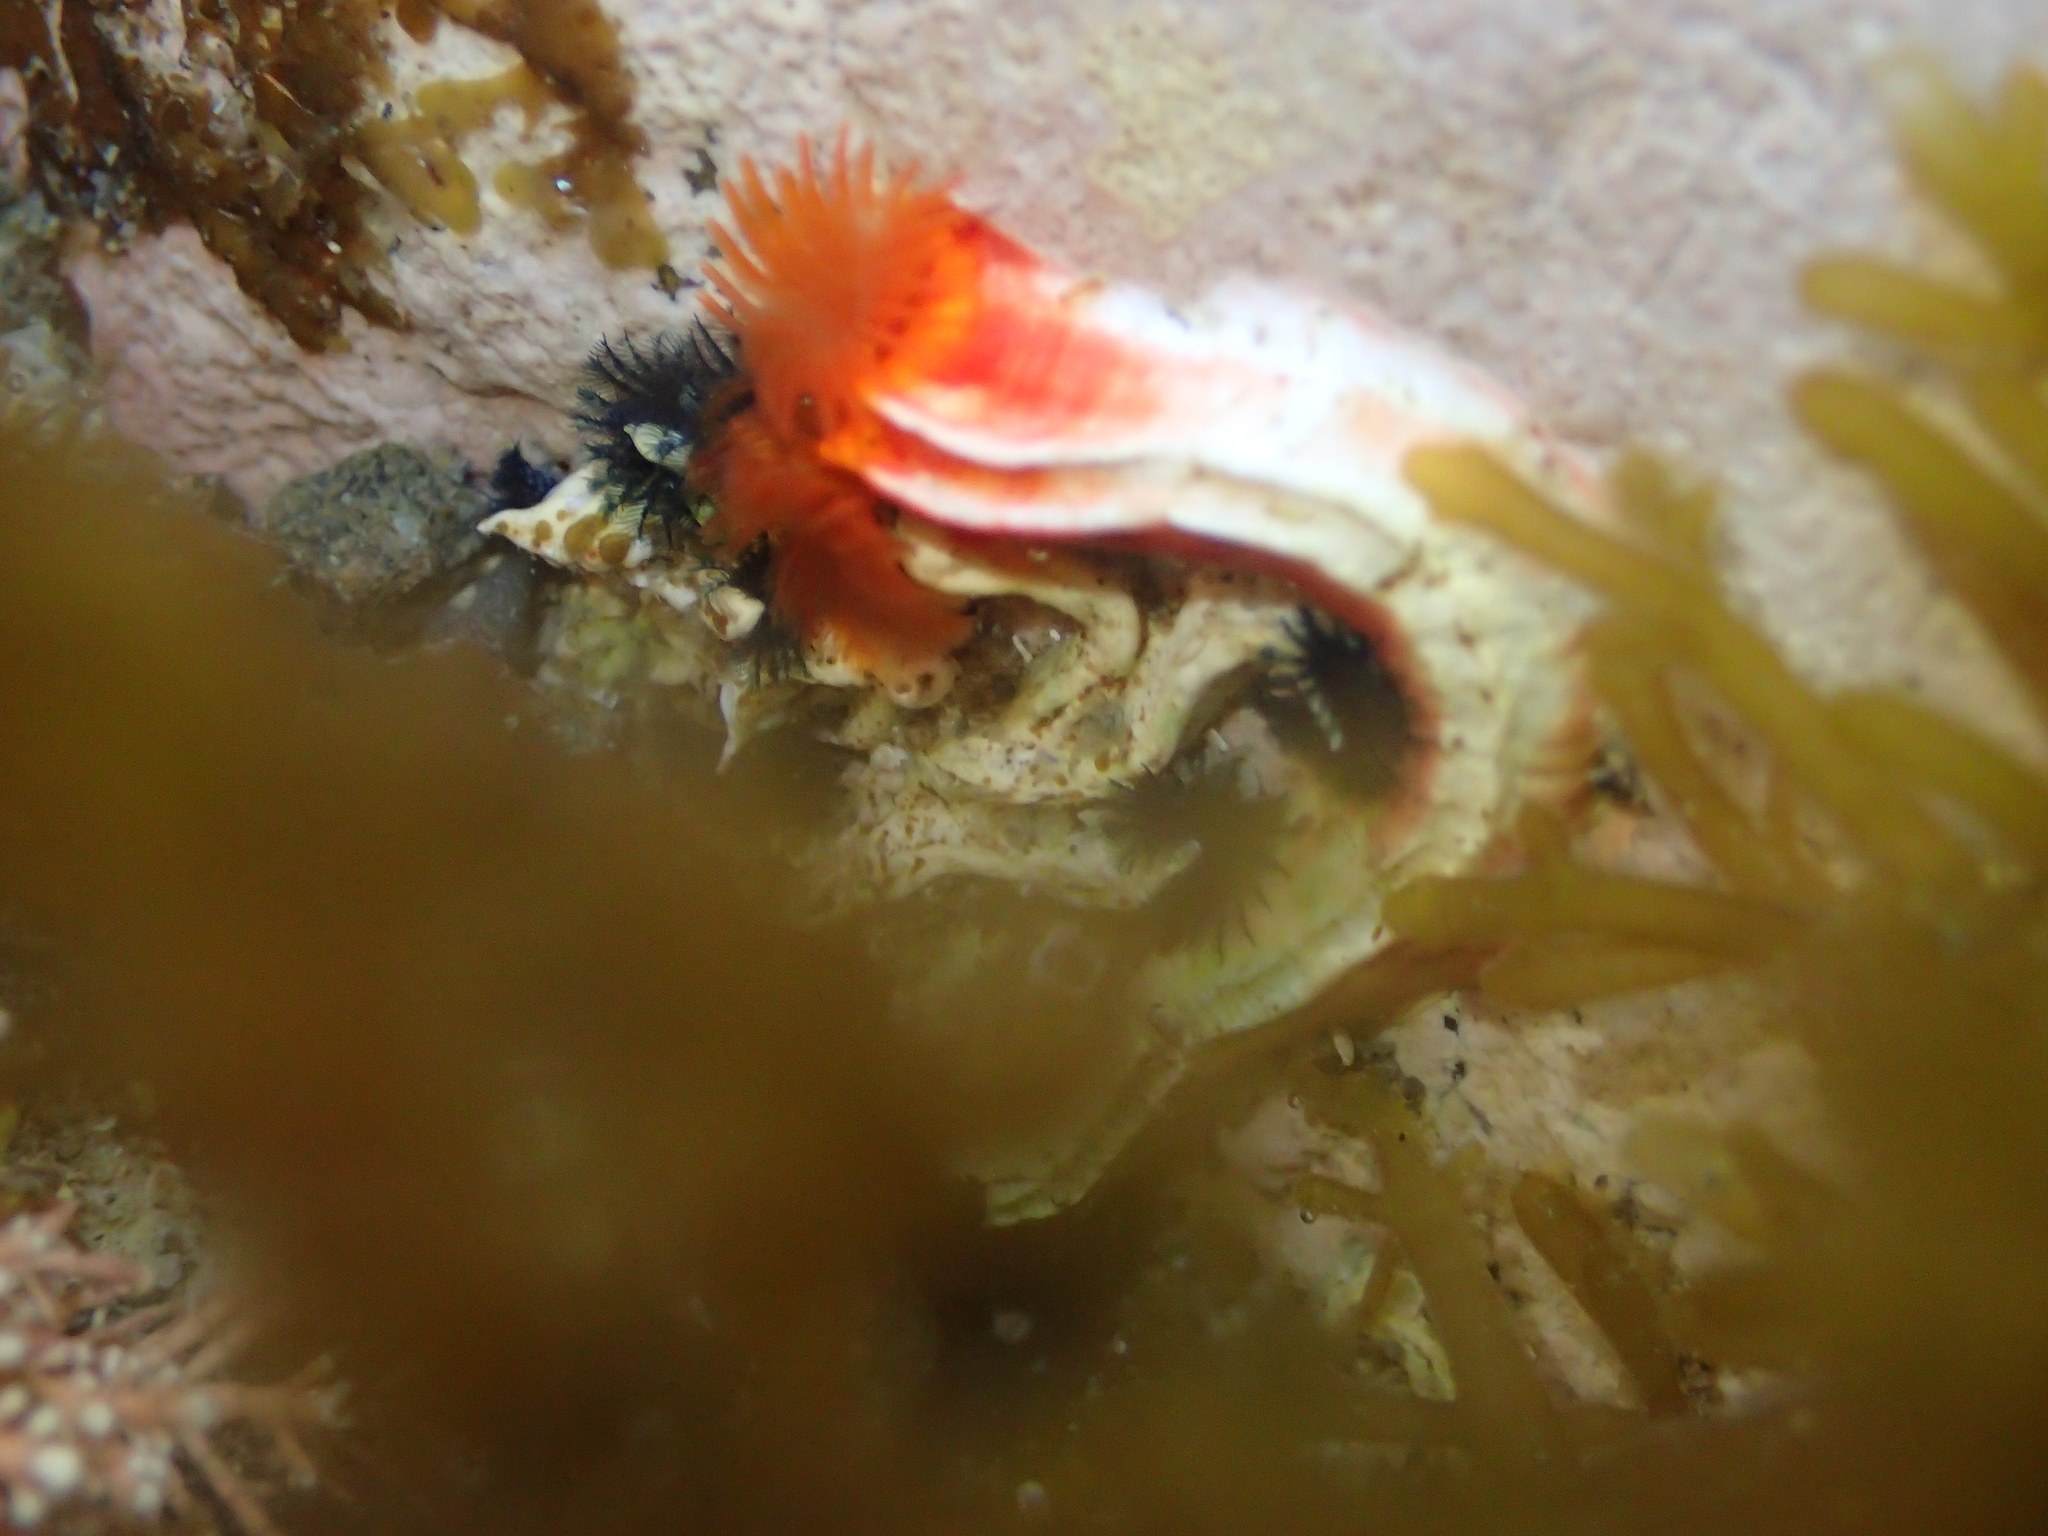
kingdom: Animalia
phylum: Annelida
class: Polychaeta
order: Sabellida
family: Serpulidae
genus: Galeolaria
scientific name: Galeolaria hystrix
